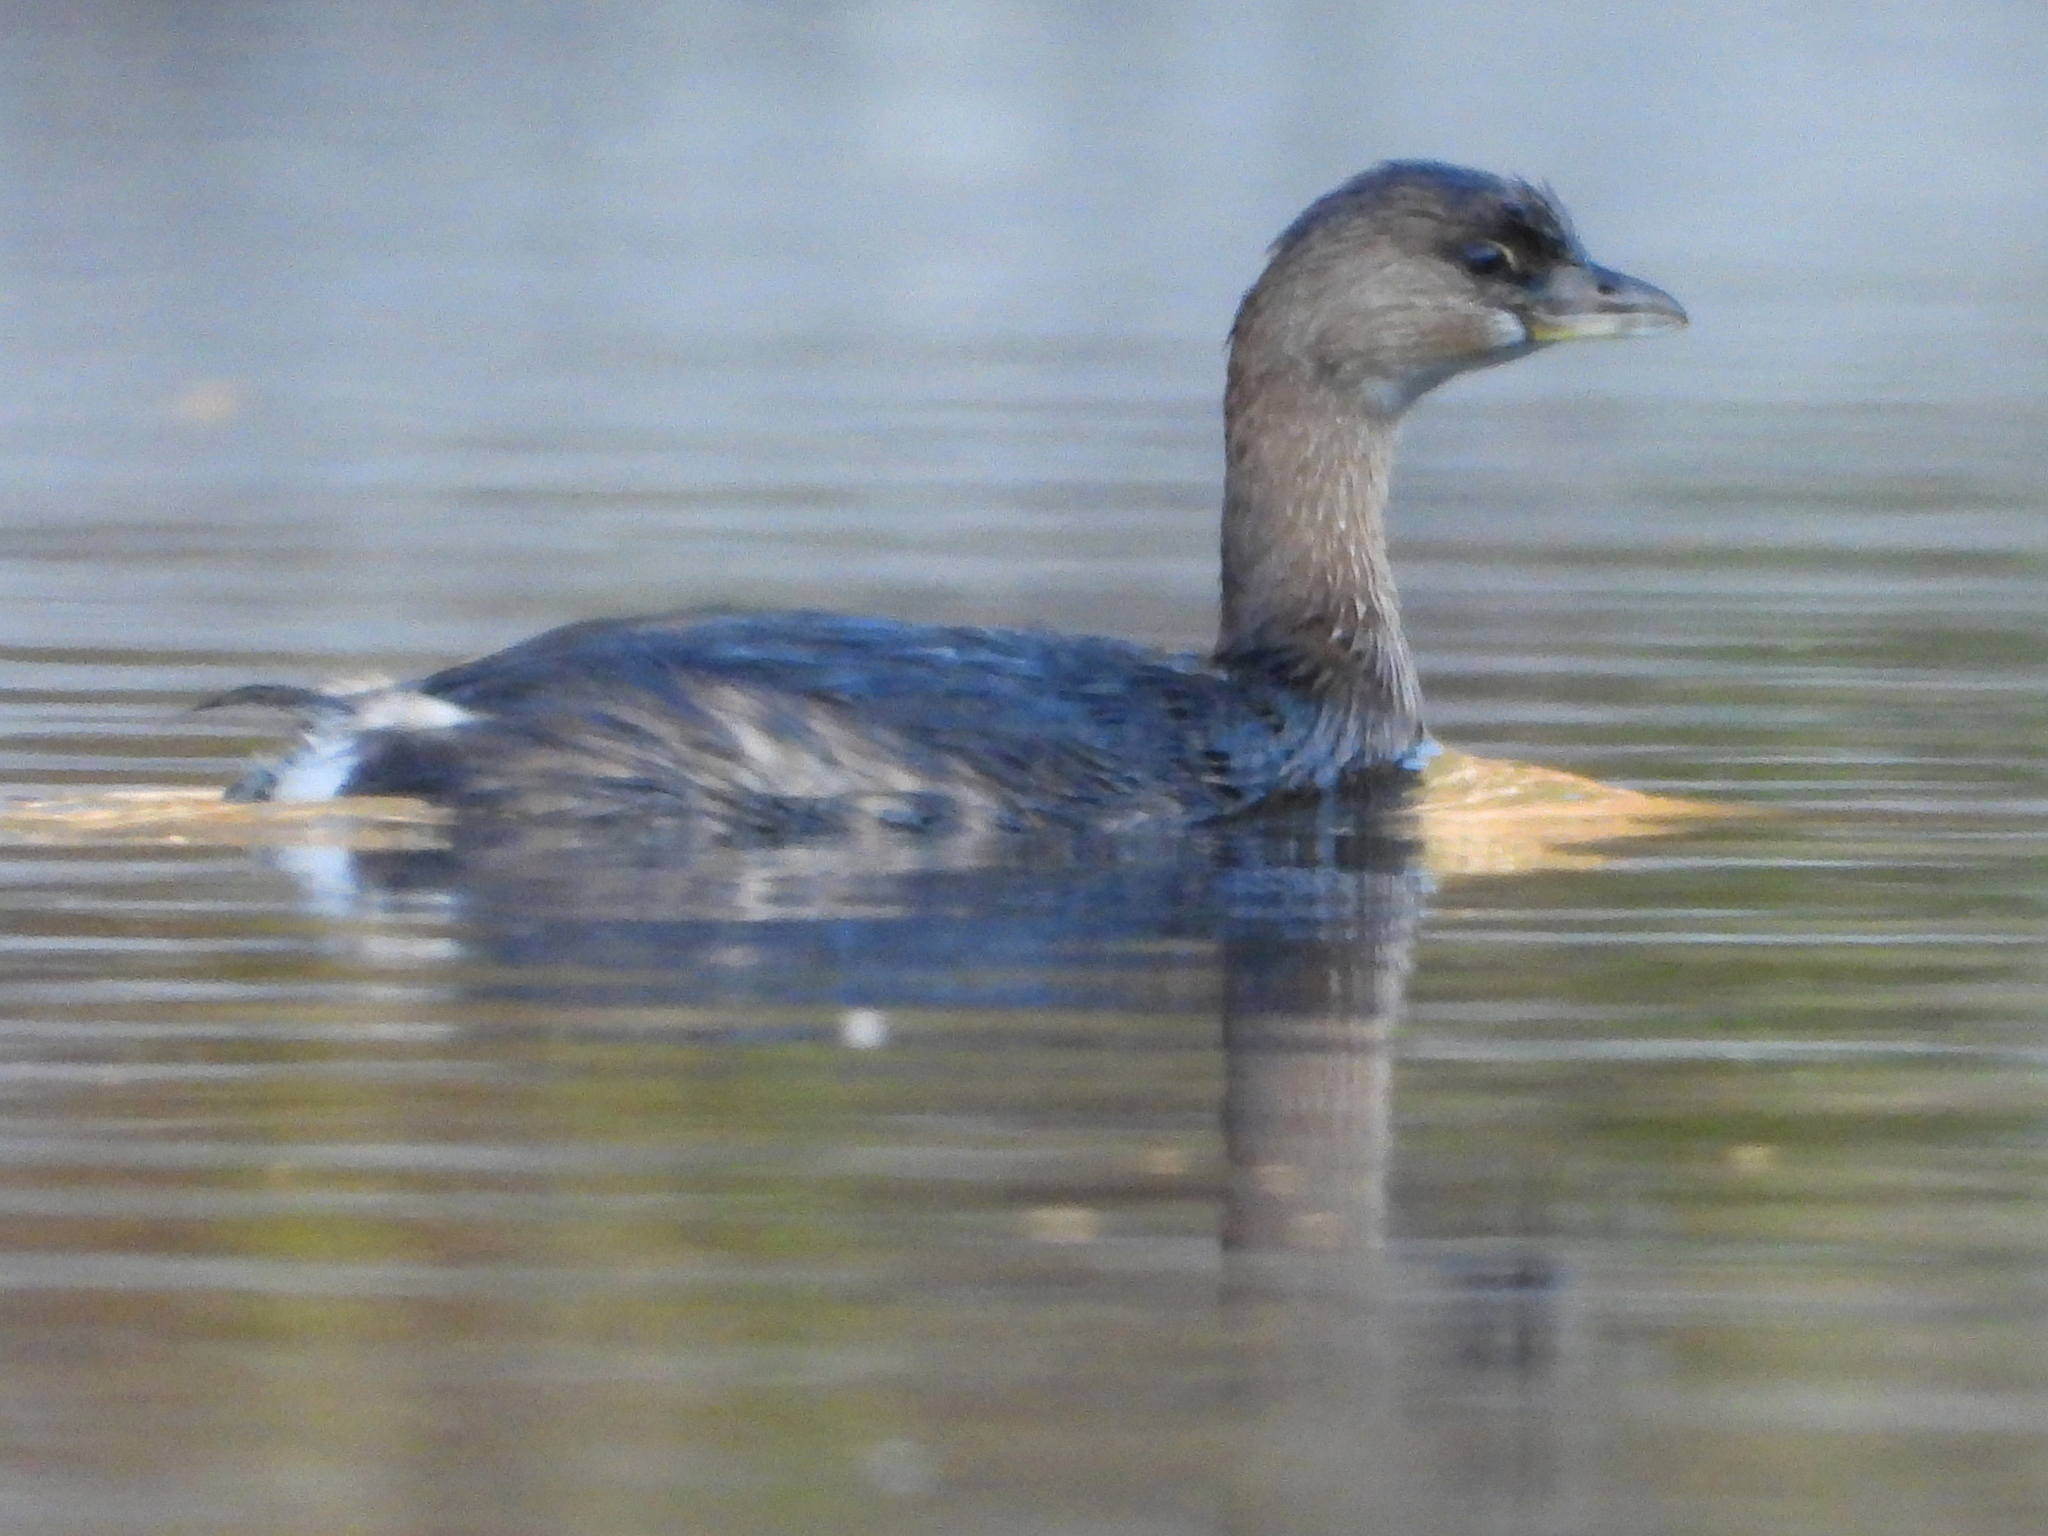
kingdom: Animalia
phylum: Chordata
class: Aves
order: Podicipediformes
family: Podicipedidae
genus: Podilymbus
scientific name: Podilymbus podiceps
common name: Pied-billed grebe
